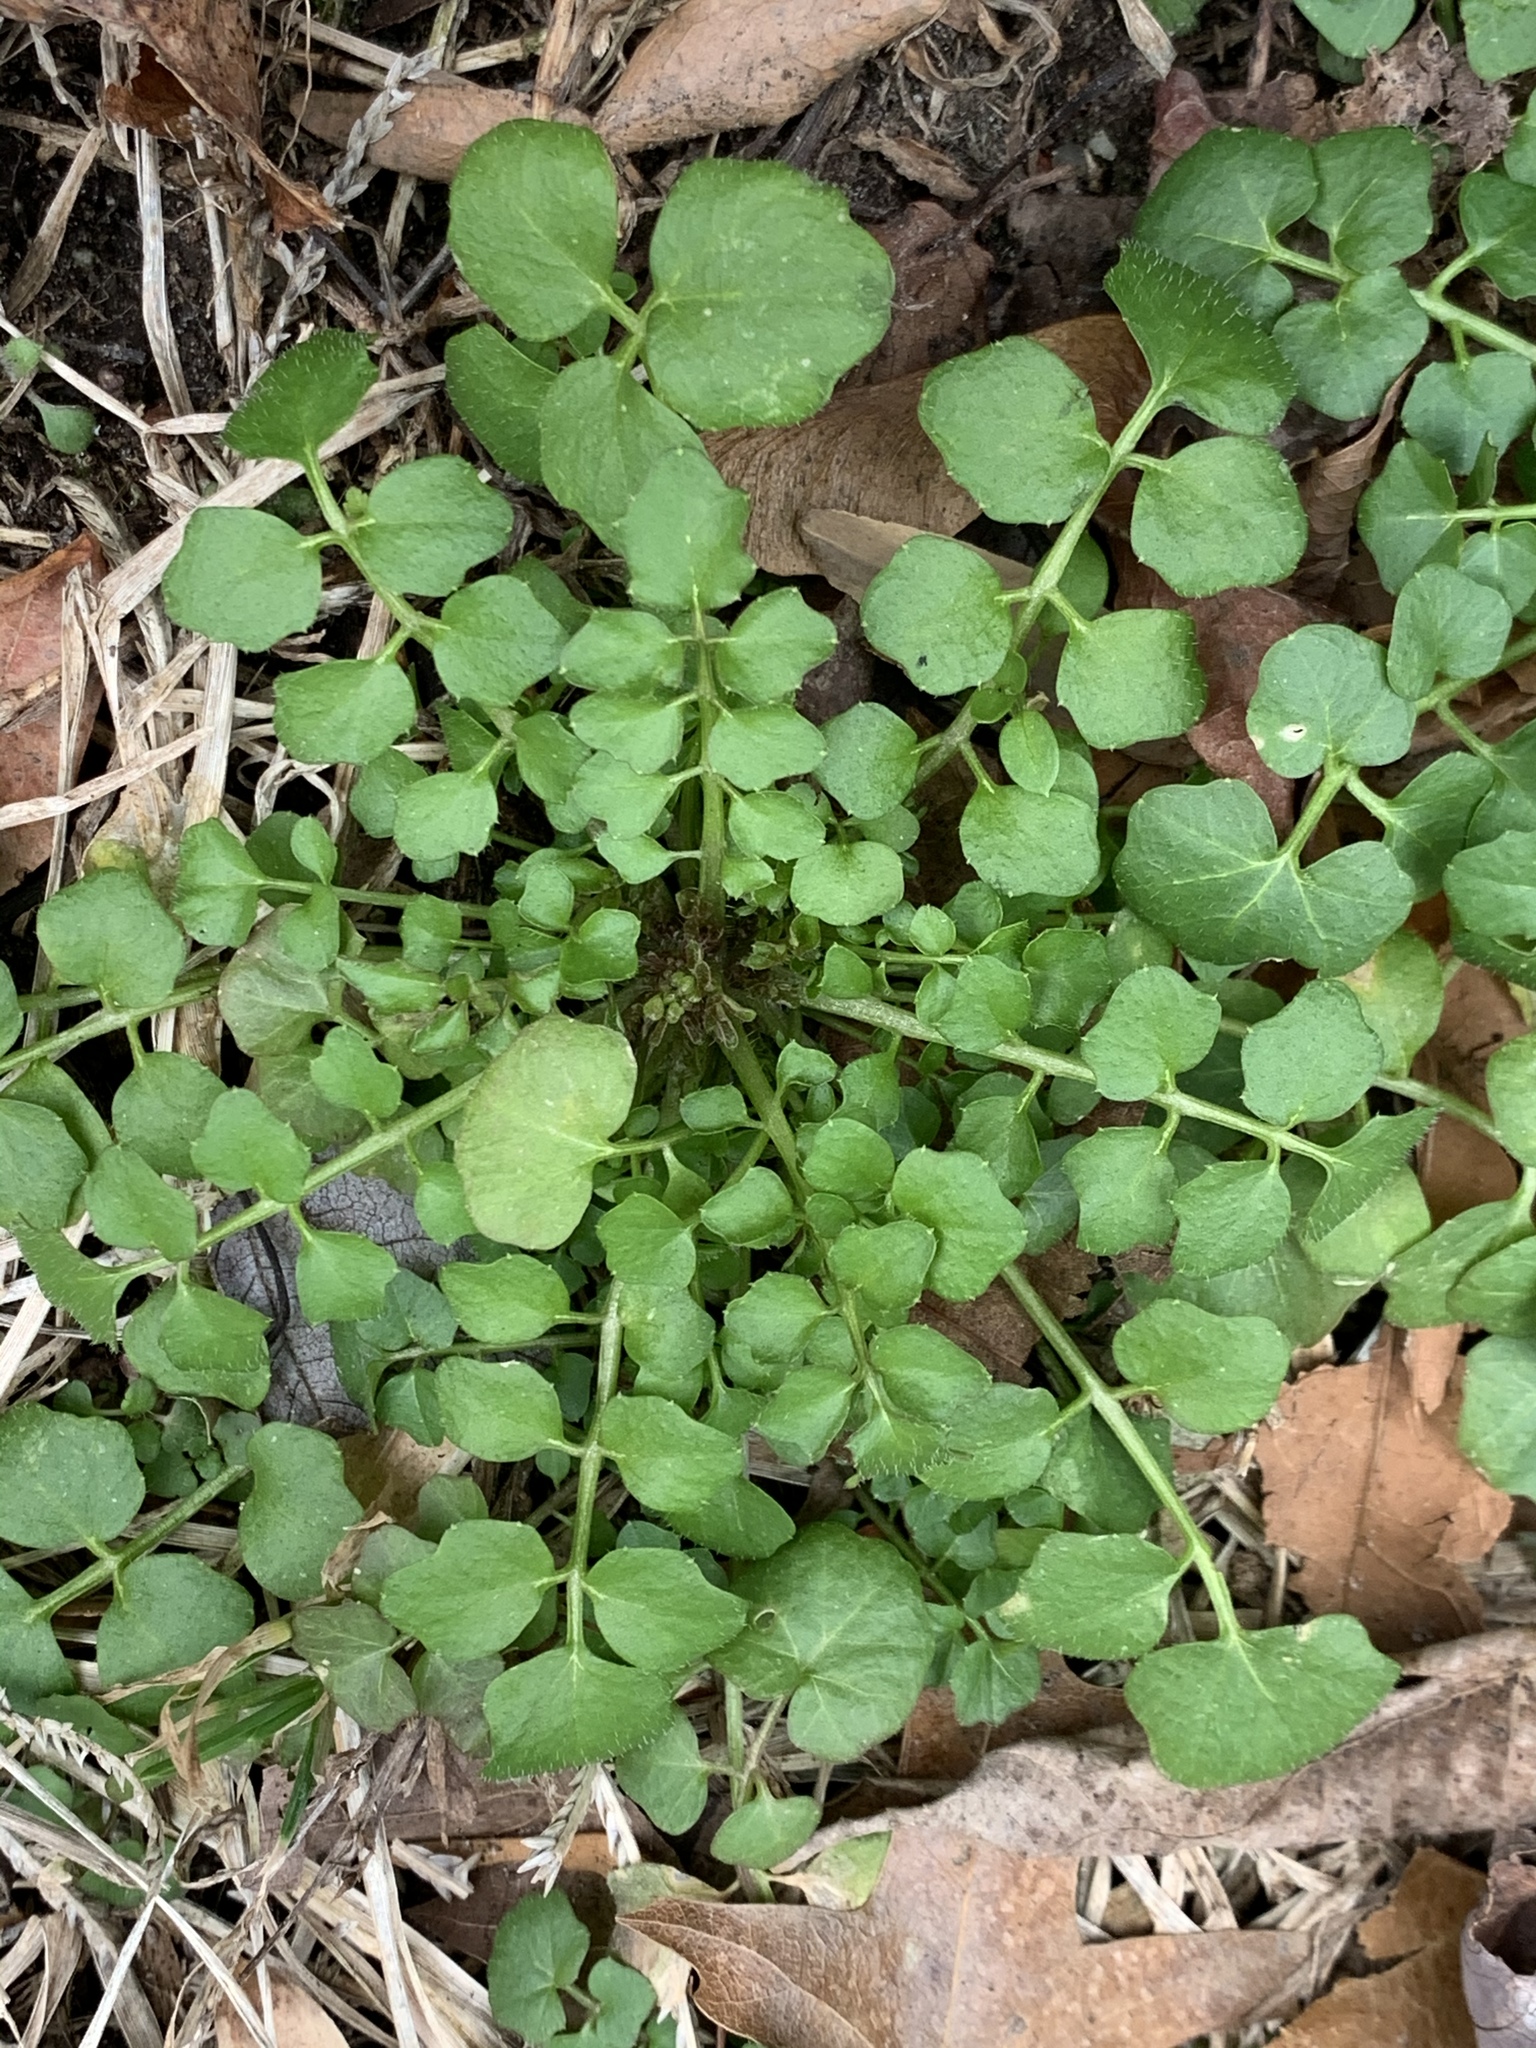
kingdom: Plantae
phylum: Tracheophyta
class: Magnoliopsida
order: Brassicales
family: Brassicaceae
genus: Cardamine
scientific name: Cardamine hirsuta
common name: Hairy bittercress
